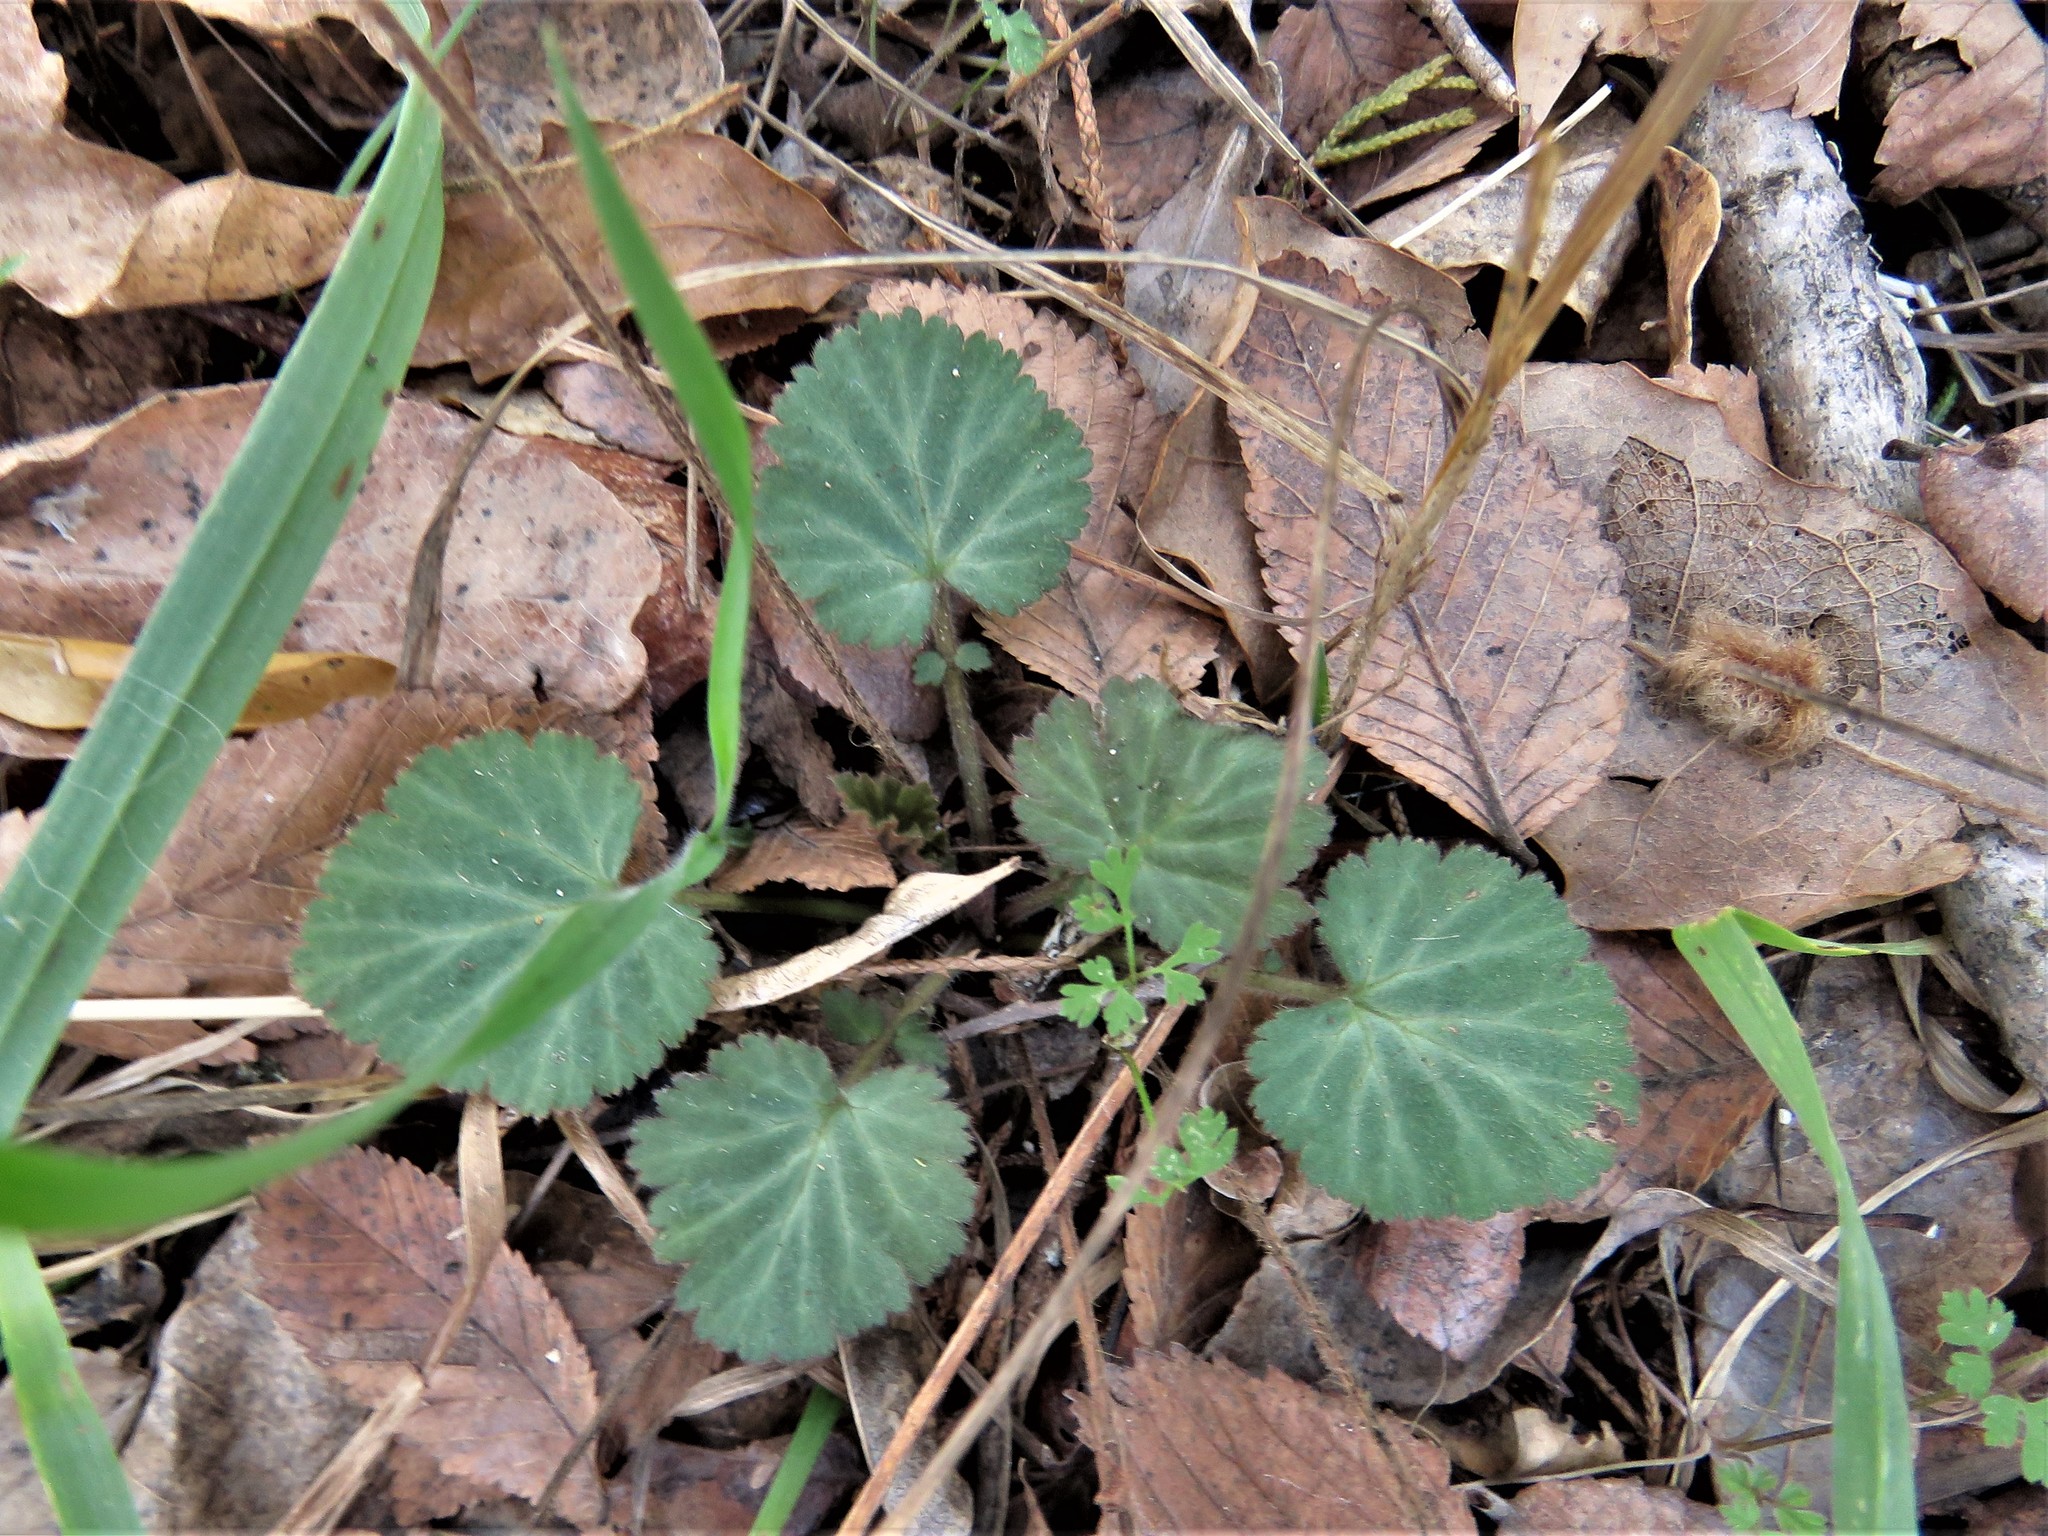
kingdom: Plantae
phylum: Tracheophyta
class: Magnoliopsida
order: Rosales
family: Rosaceae
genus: Geum
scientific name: Geum canadense
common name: White avens
